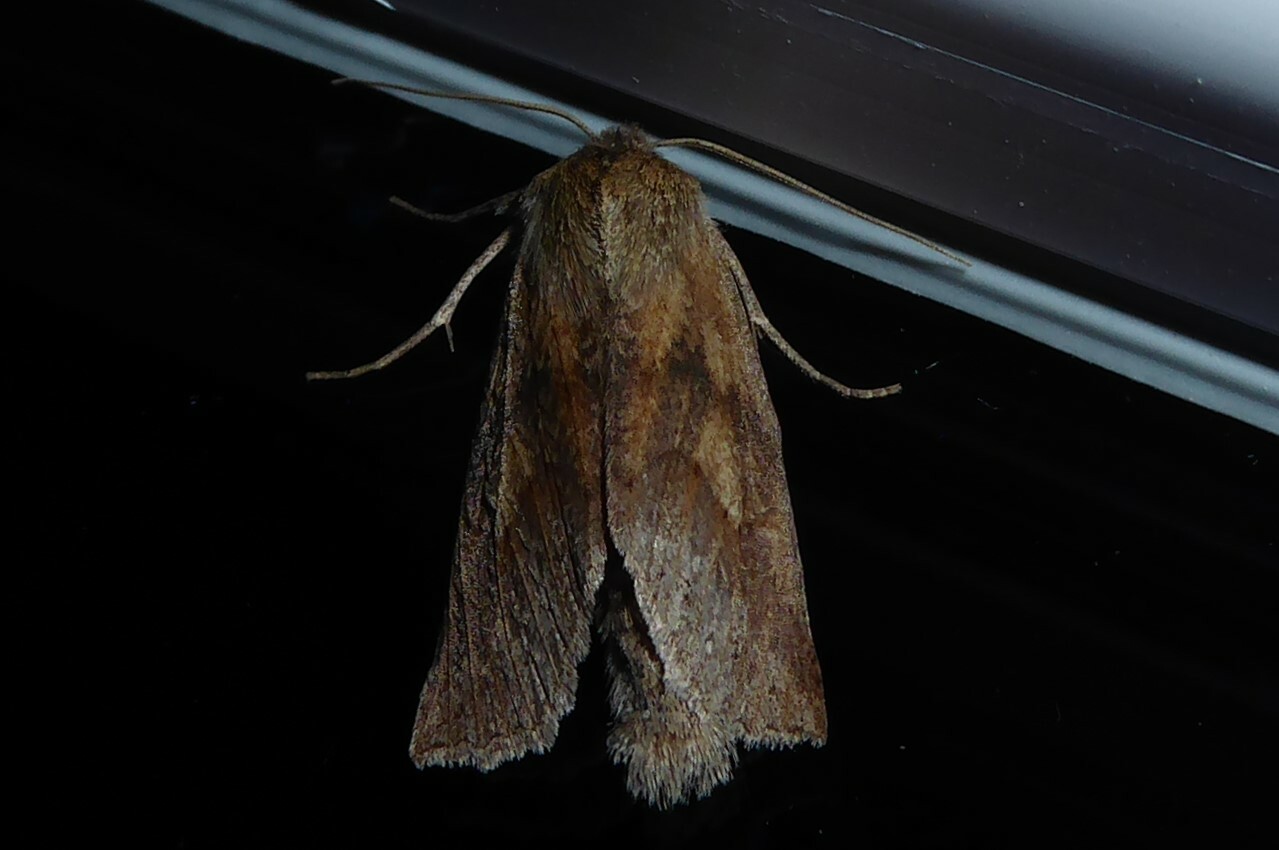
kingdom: Animalia
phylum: Arthropoda
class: Insecta
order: Lepidoptera
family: Geometridae
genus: Declana
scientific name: Declana leptomera
